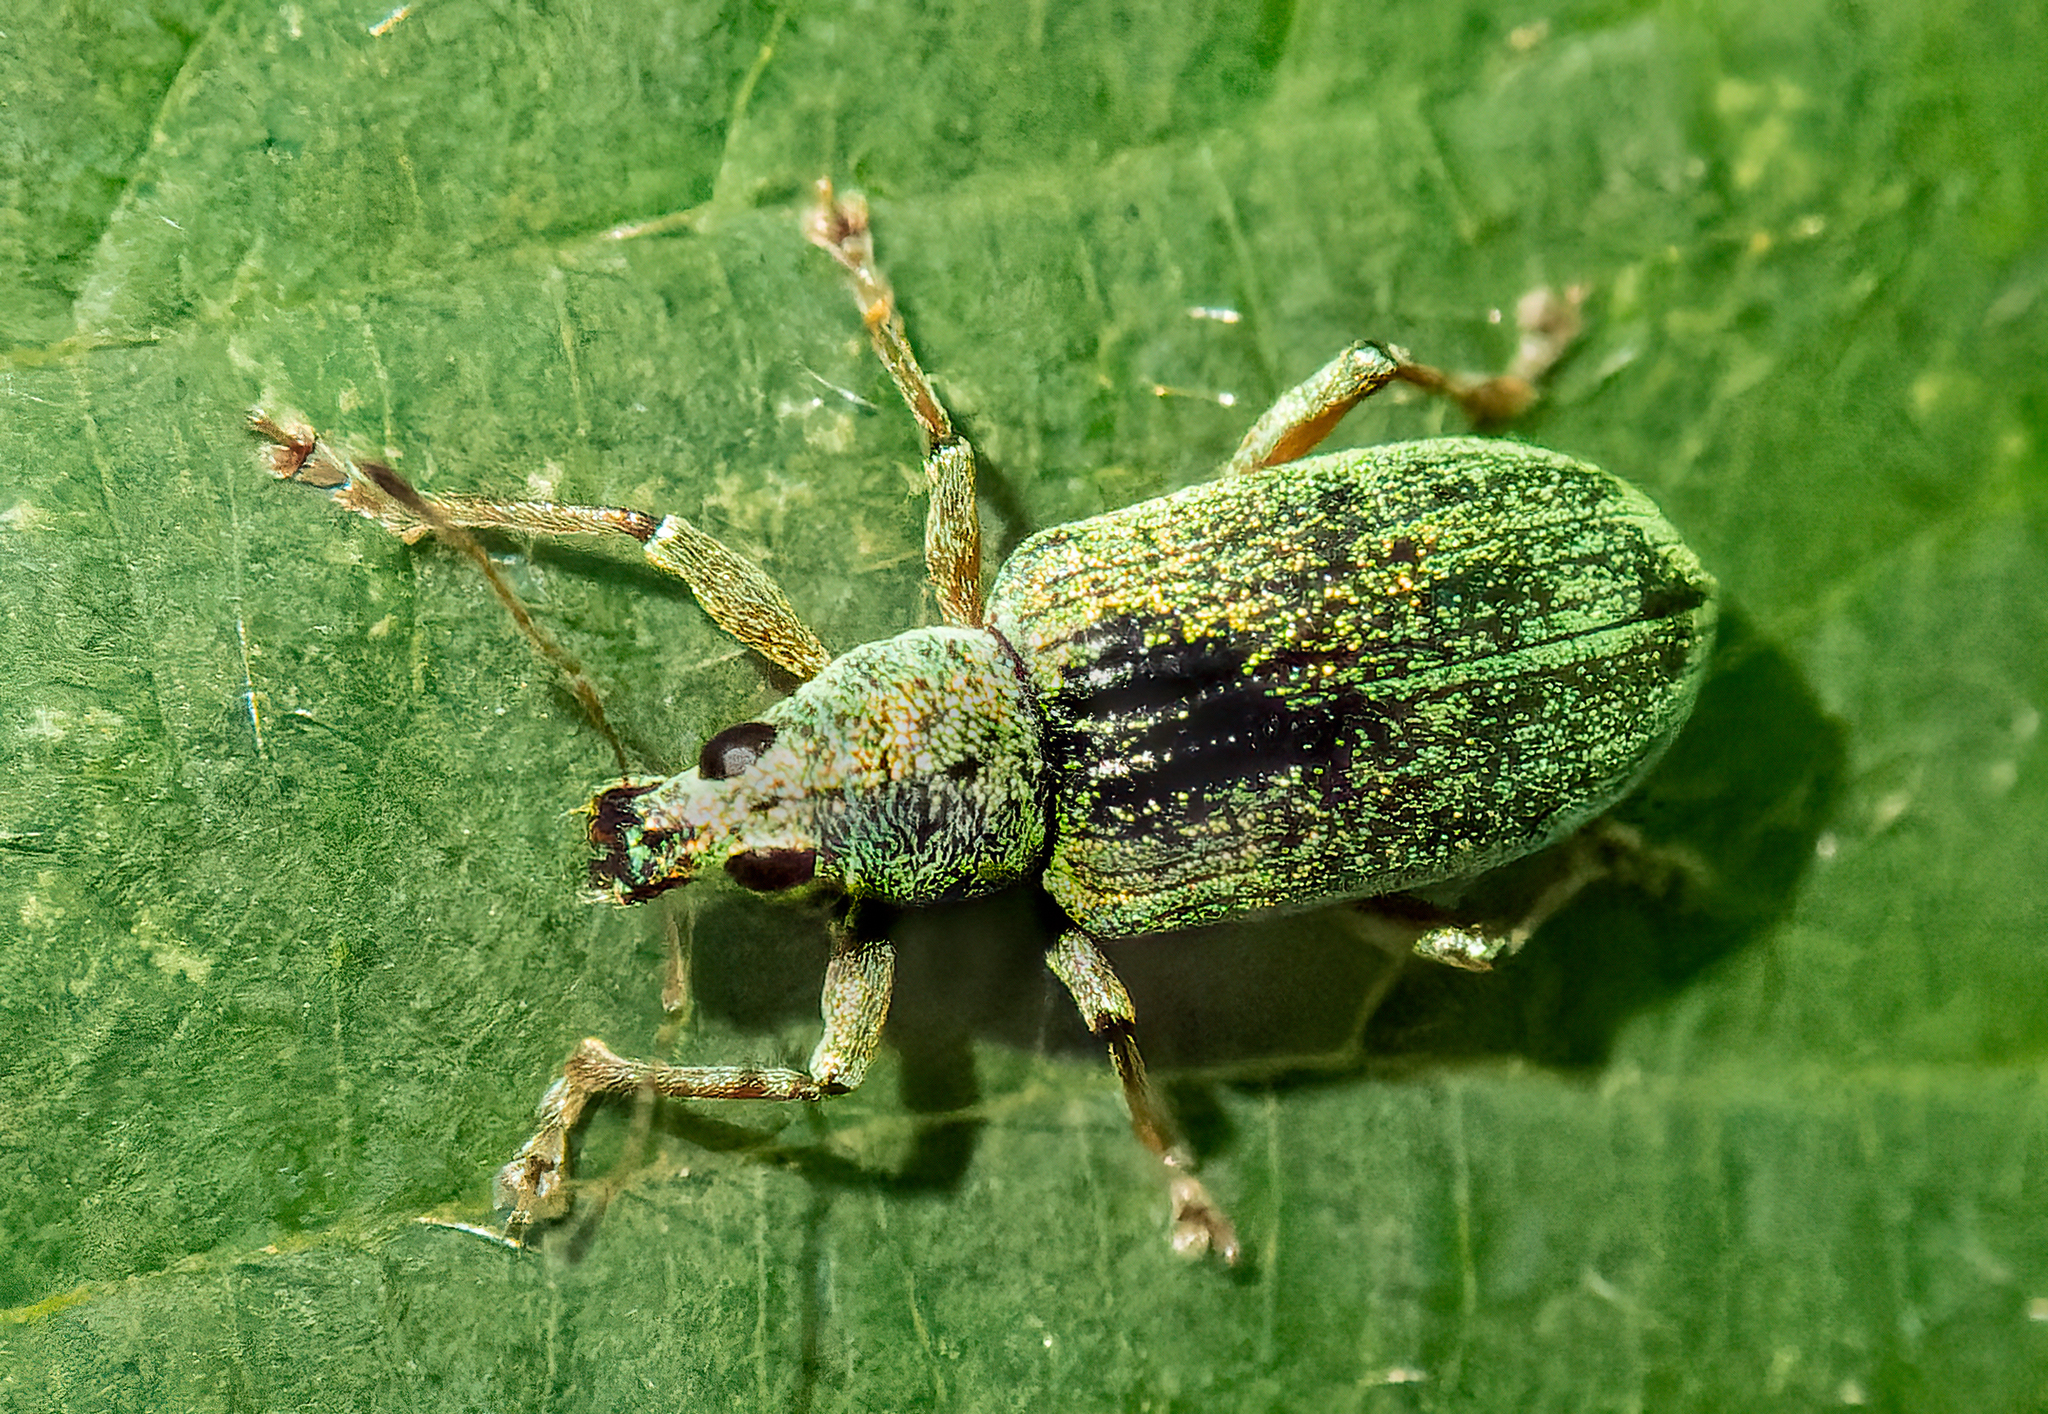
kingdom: Animalia
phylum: Arthropoda
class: Insecta
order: Coleoptera
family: Curculionidae
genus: Polydrusus
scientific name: Polydrusus formosus
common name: Weevil
